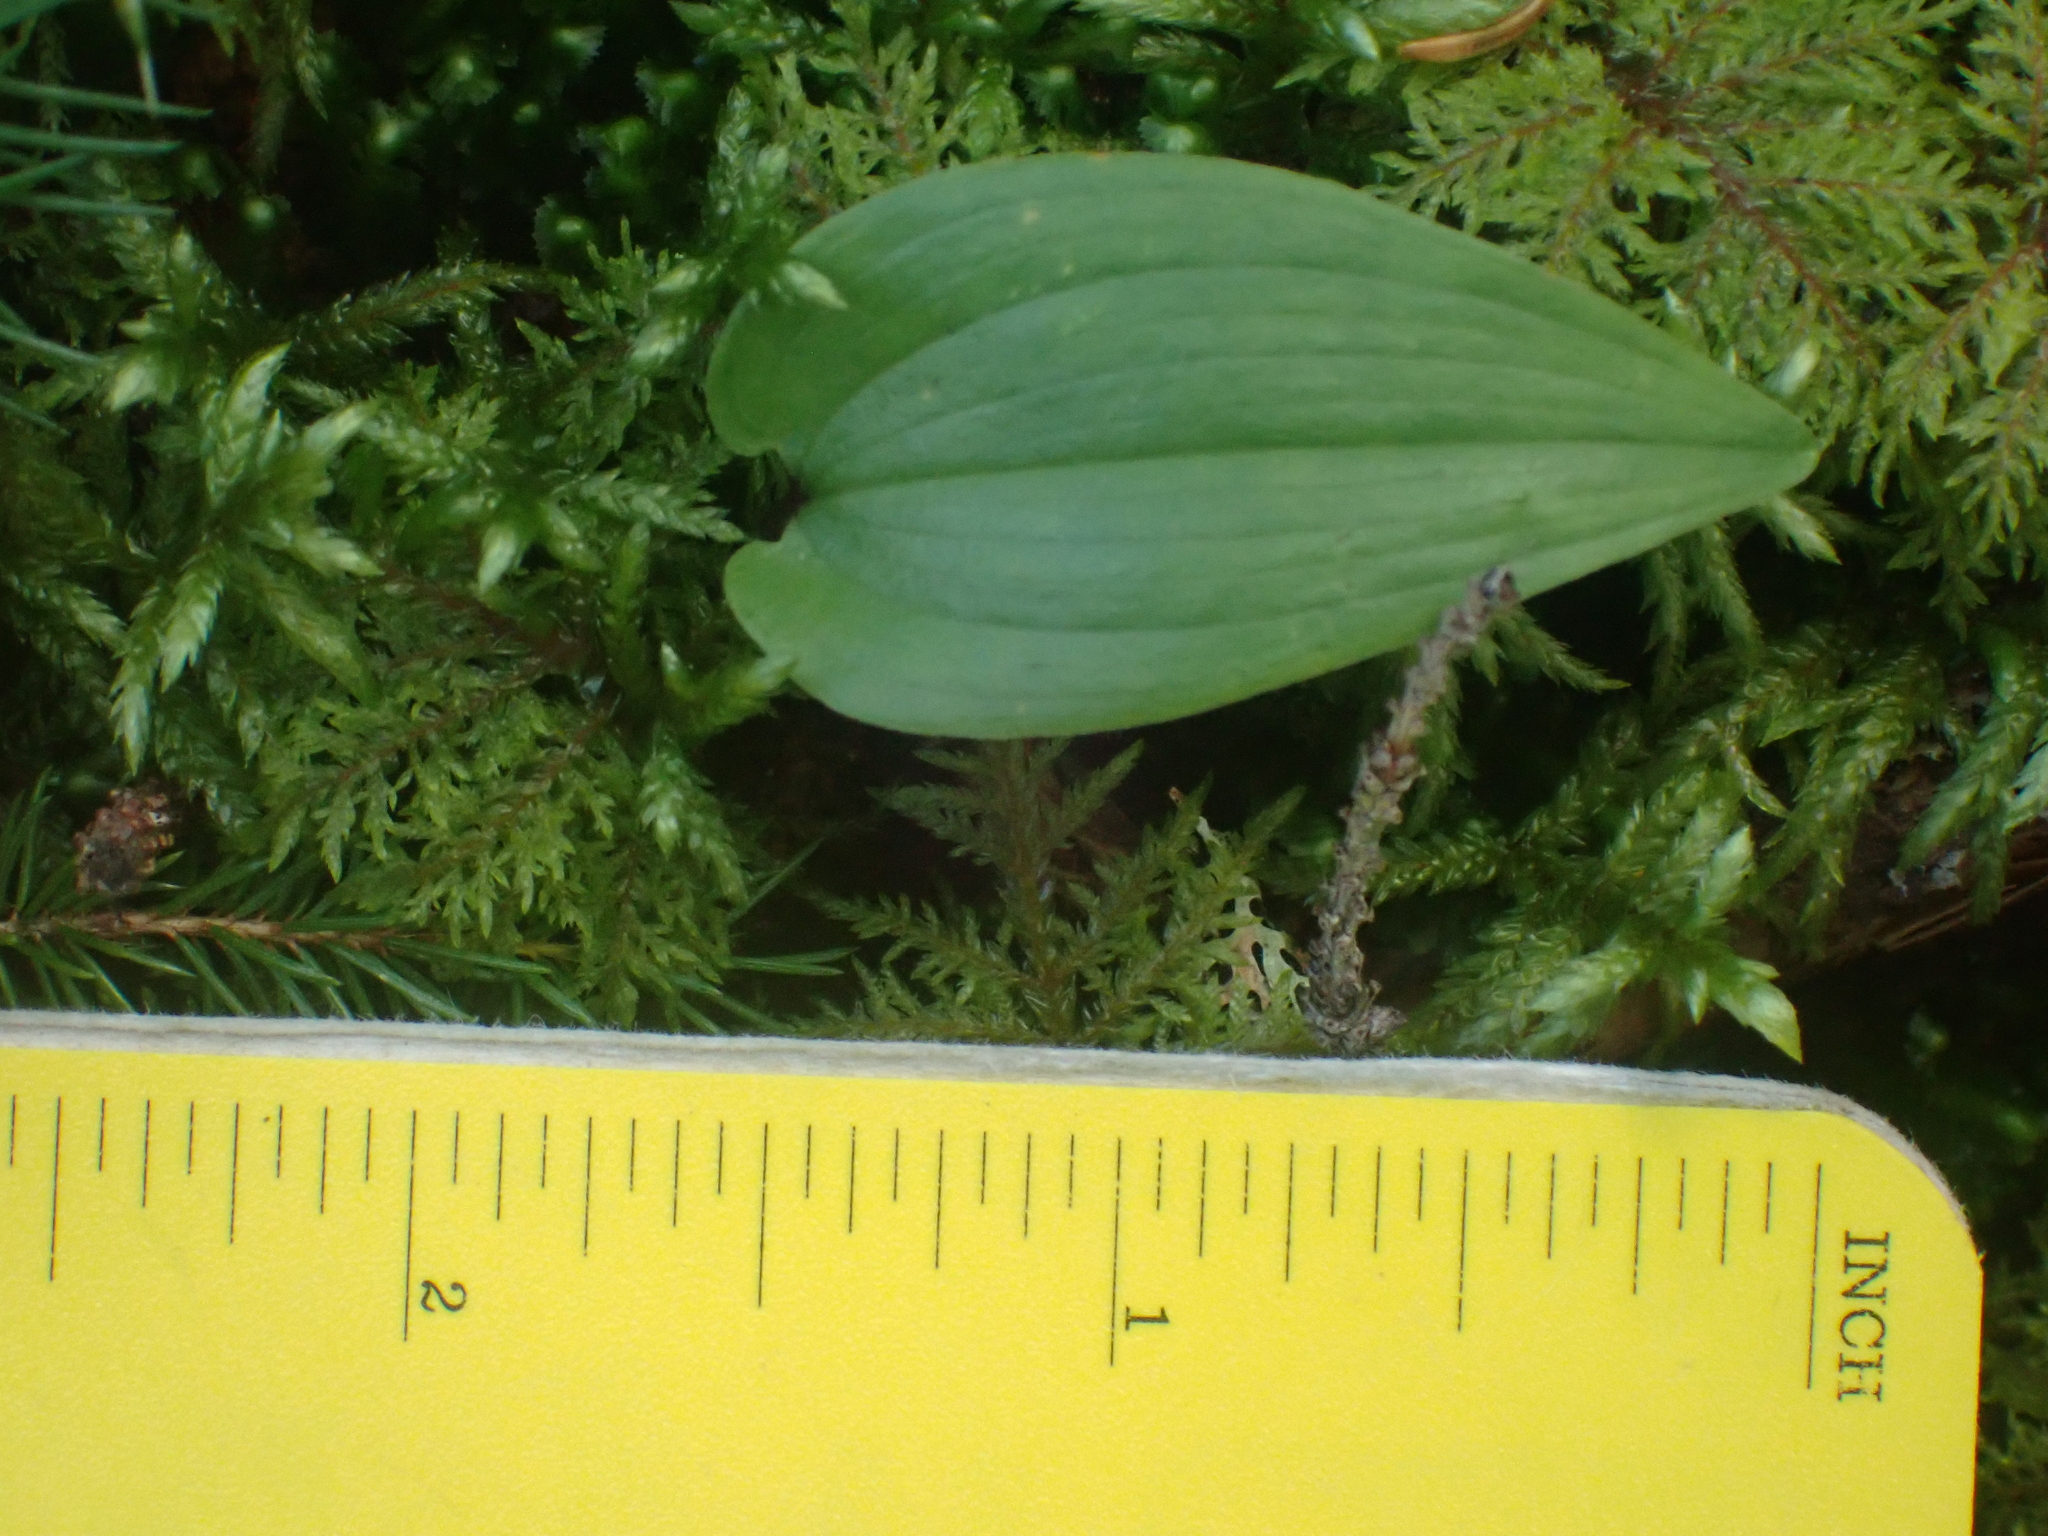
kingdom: Plantae
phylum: Tracheophyta
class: Liliopsida
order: Asparagales
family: Asparagaceae
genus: Maianthemum
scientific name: Maianthemum canadense
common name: False lily-of-the-valley
